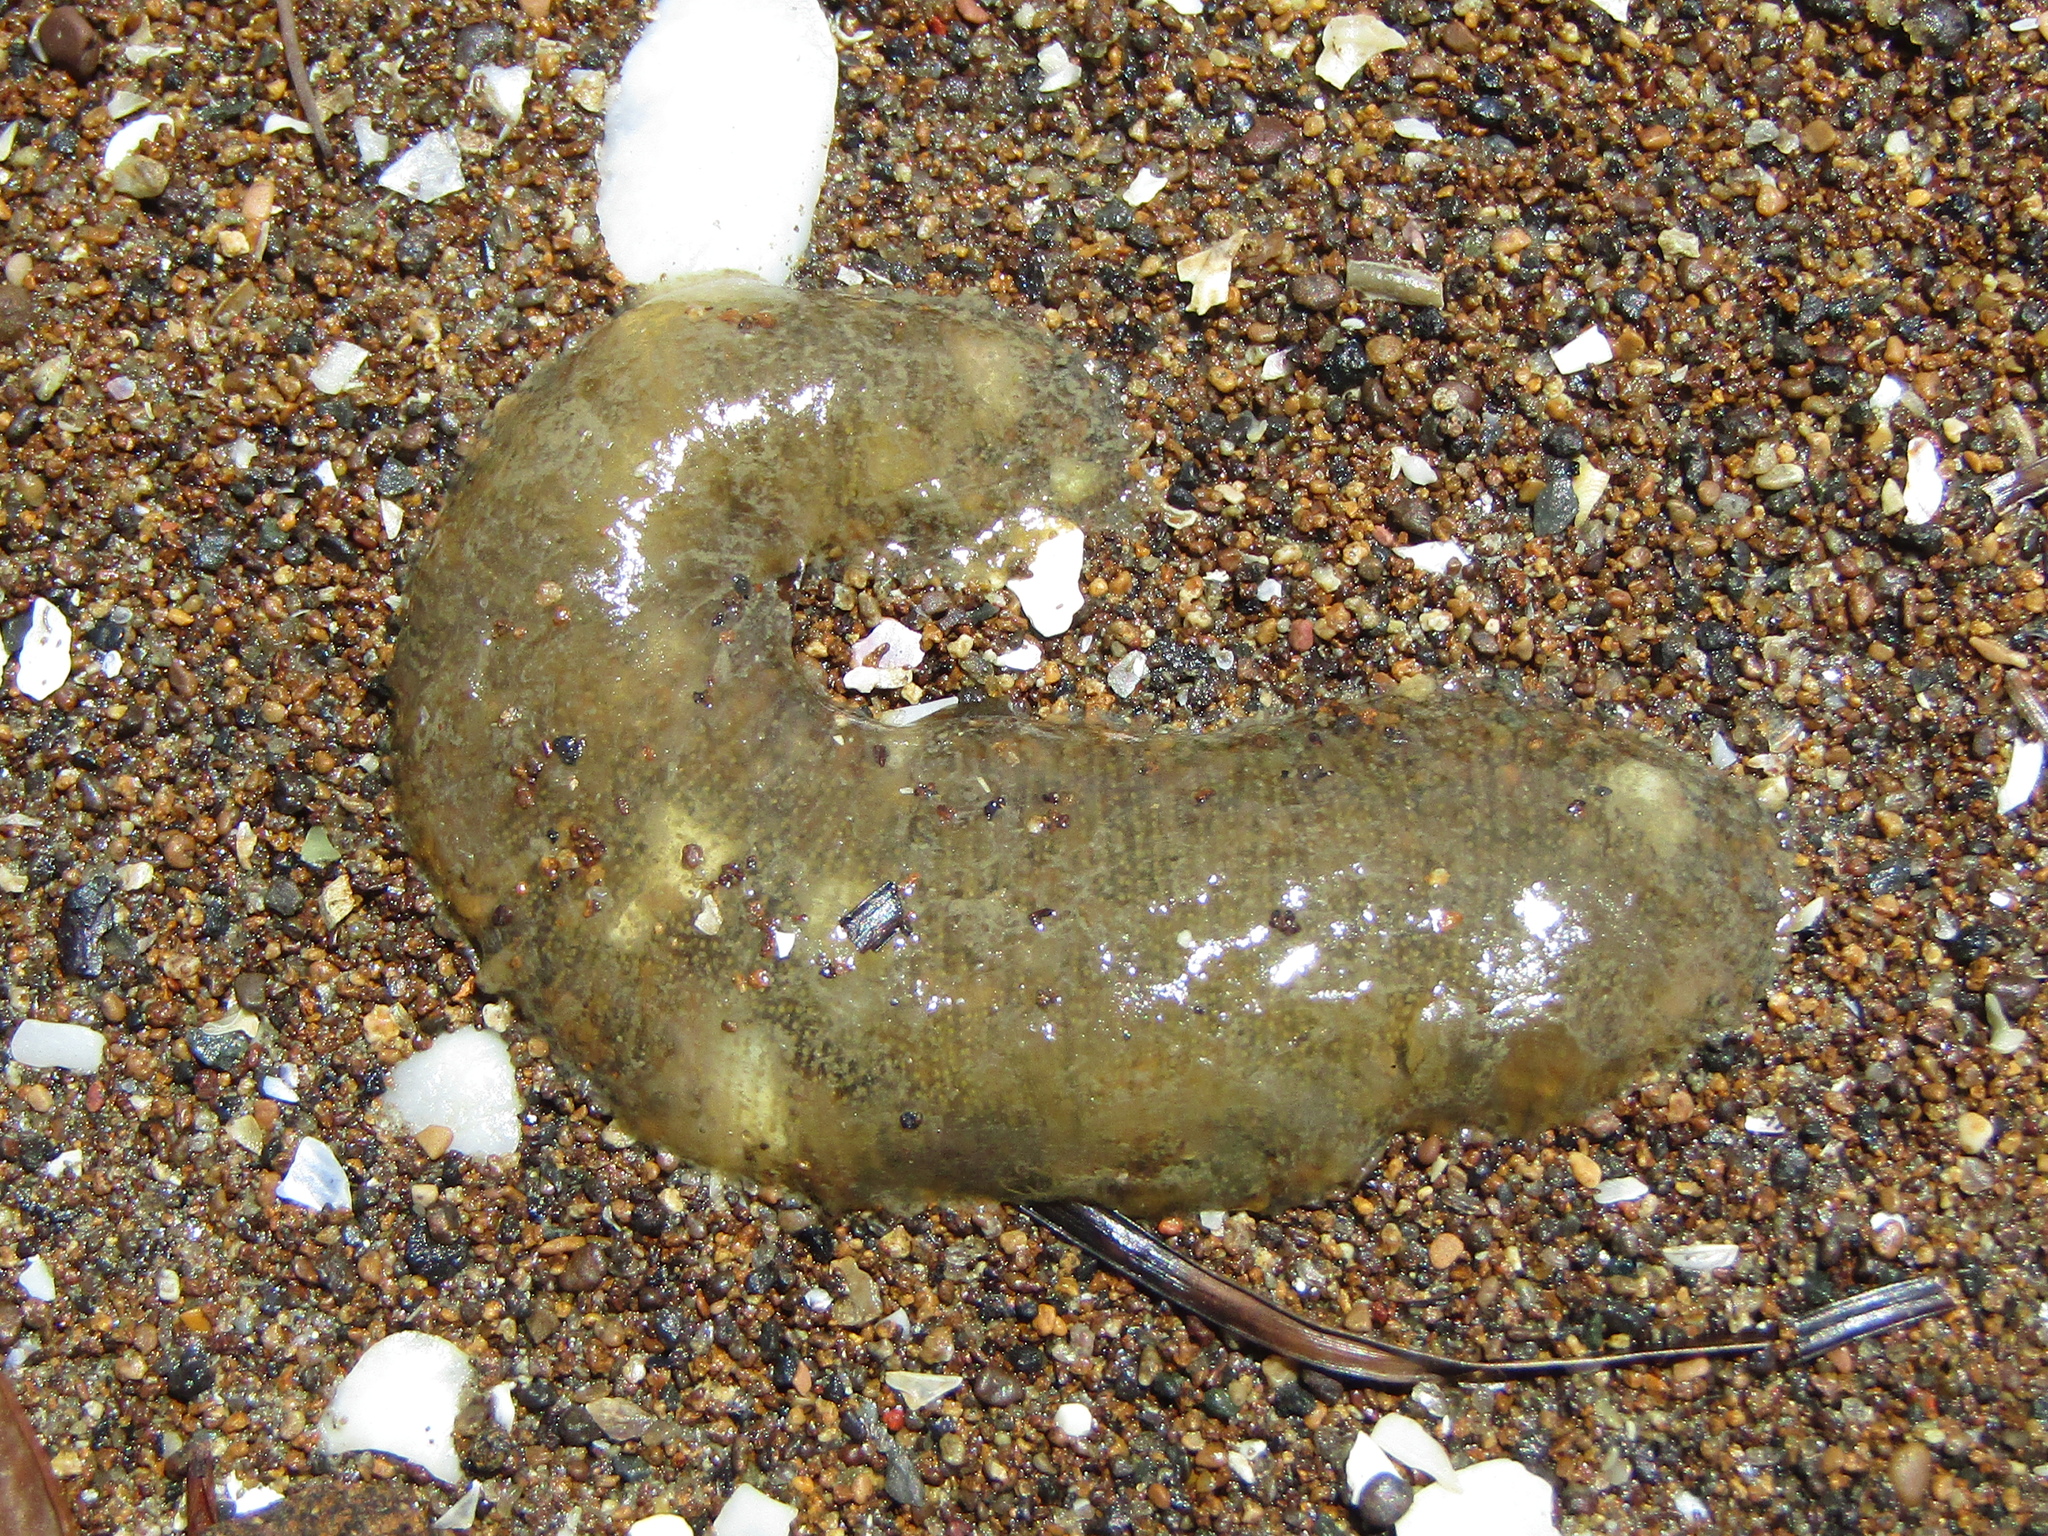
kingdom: Animalia
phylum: Mollusca
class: Gastropoda
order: Cephalaspidea
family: Haminoeidae
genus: Papawera
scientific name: Papawera zelandiae
